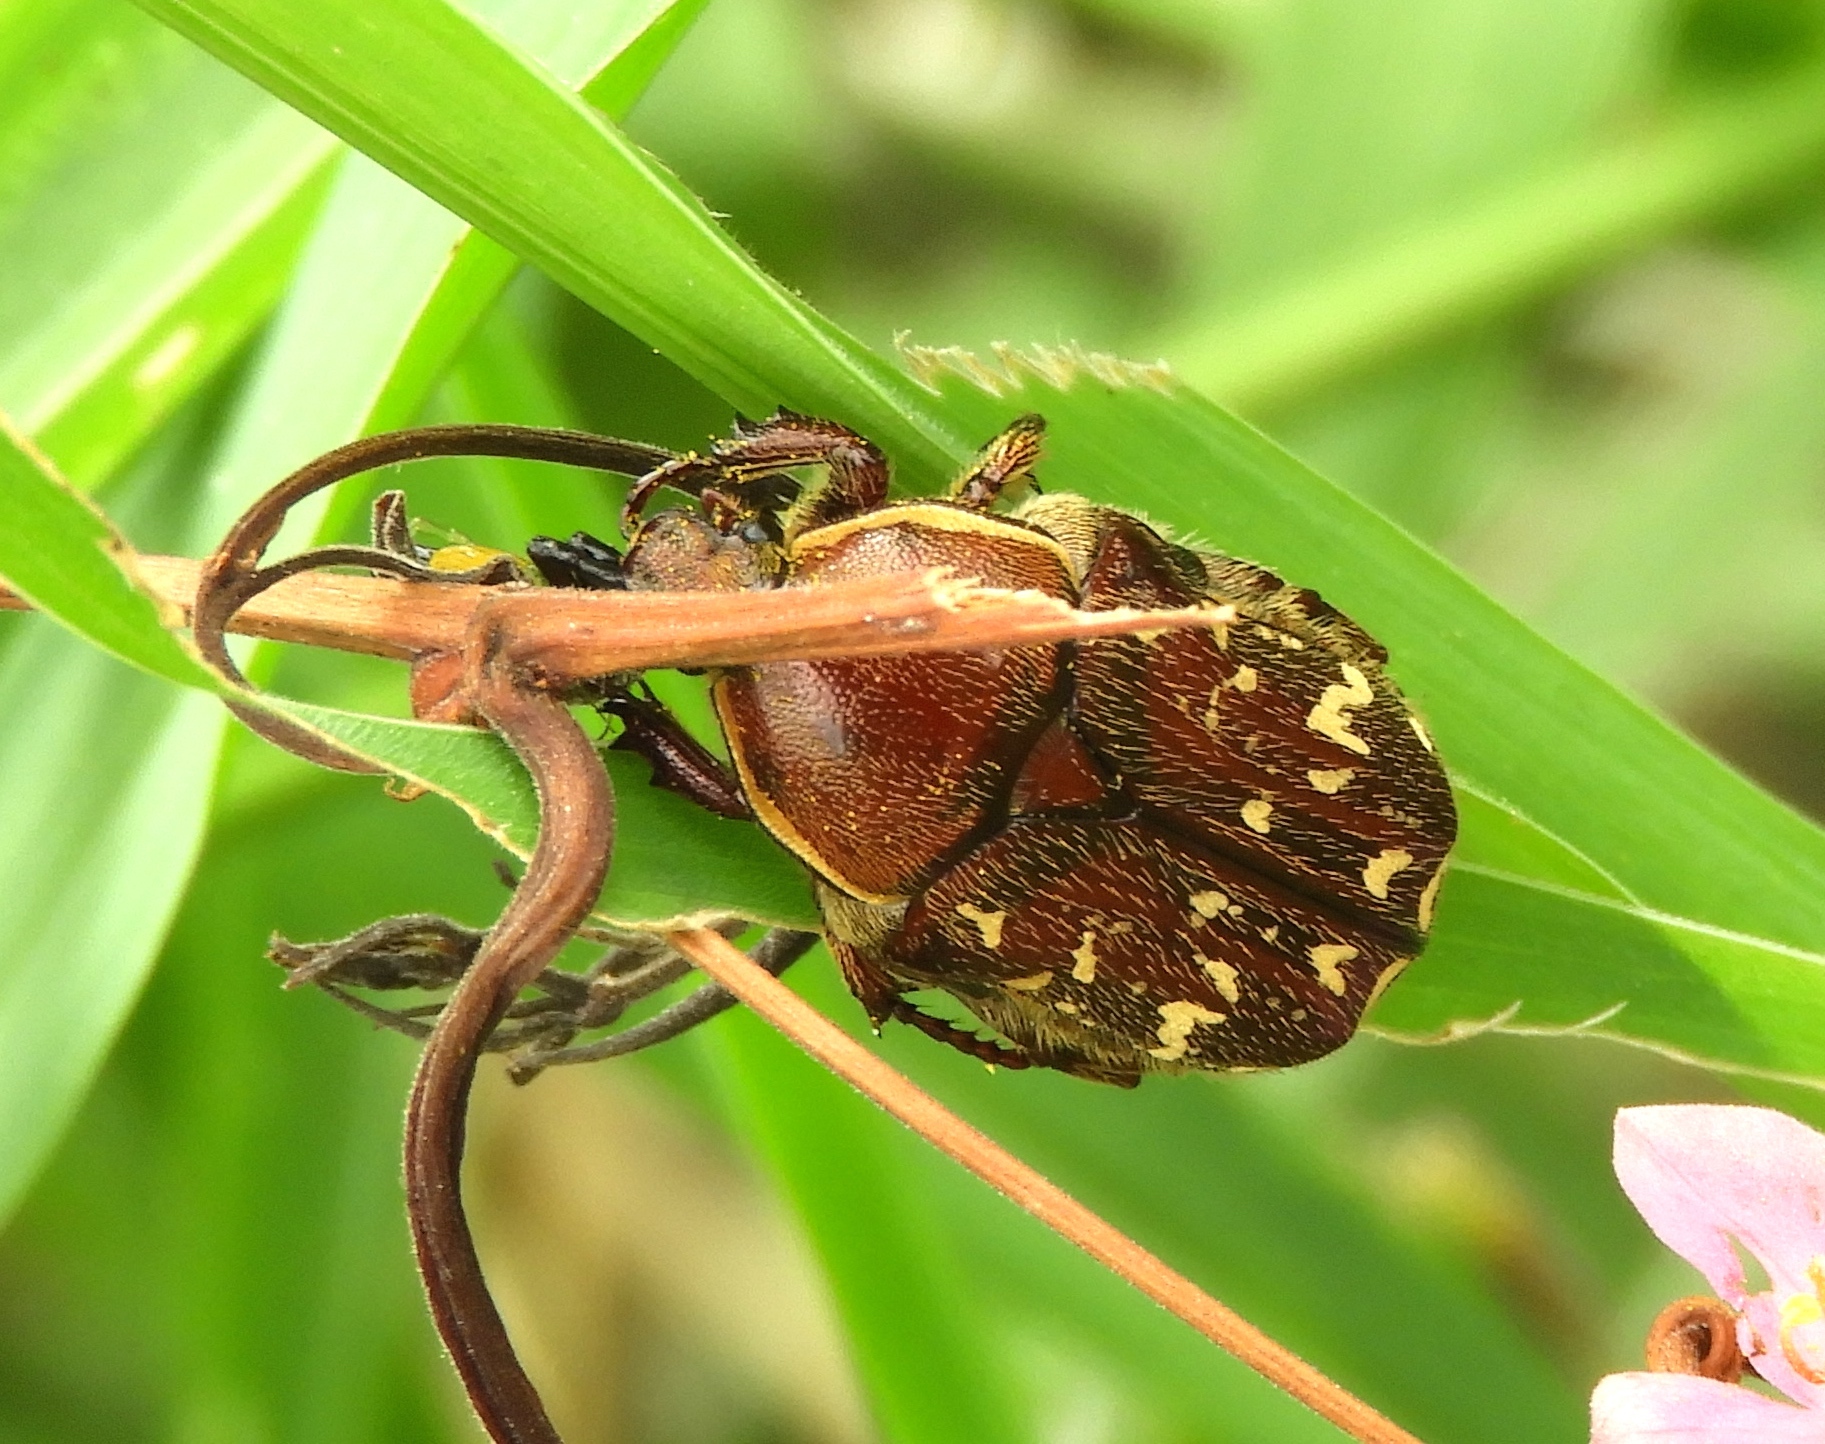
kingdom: Animalia
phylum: Arthropoda
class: Insecta
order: Coleoptera
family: Scarabaeidae
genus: Euphoria
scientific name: Euphoria leucographa
